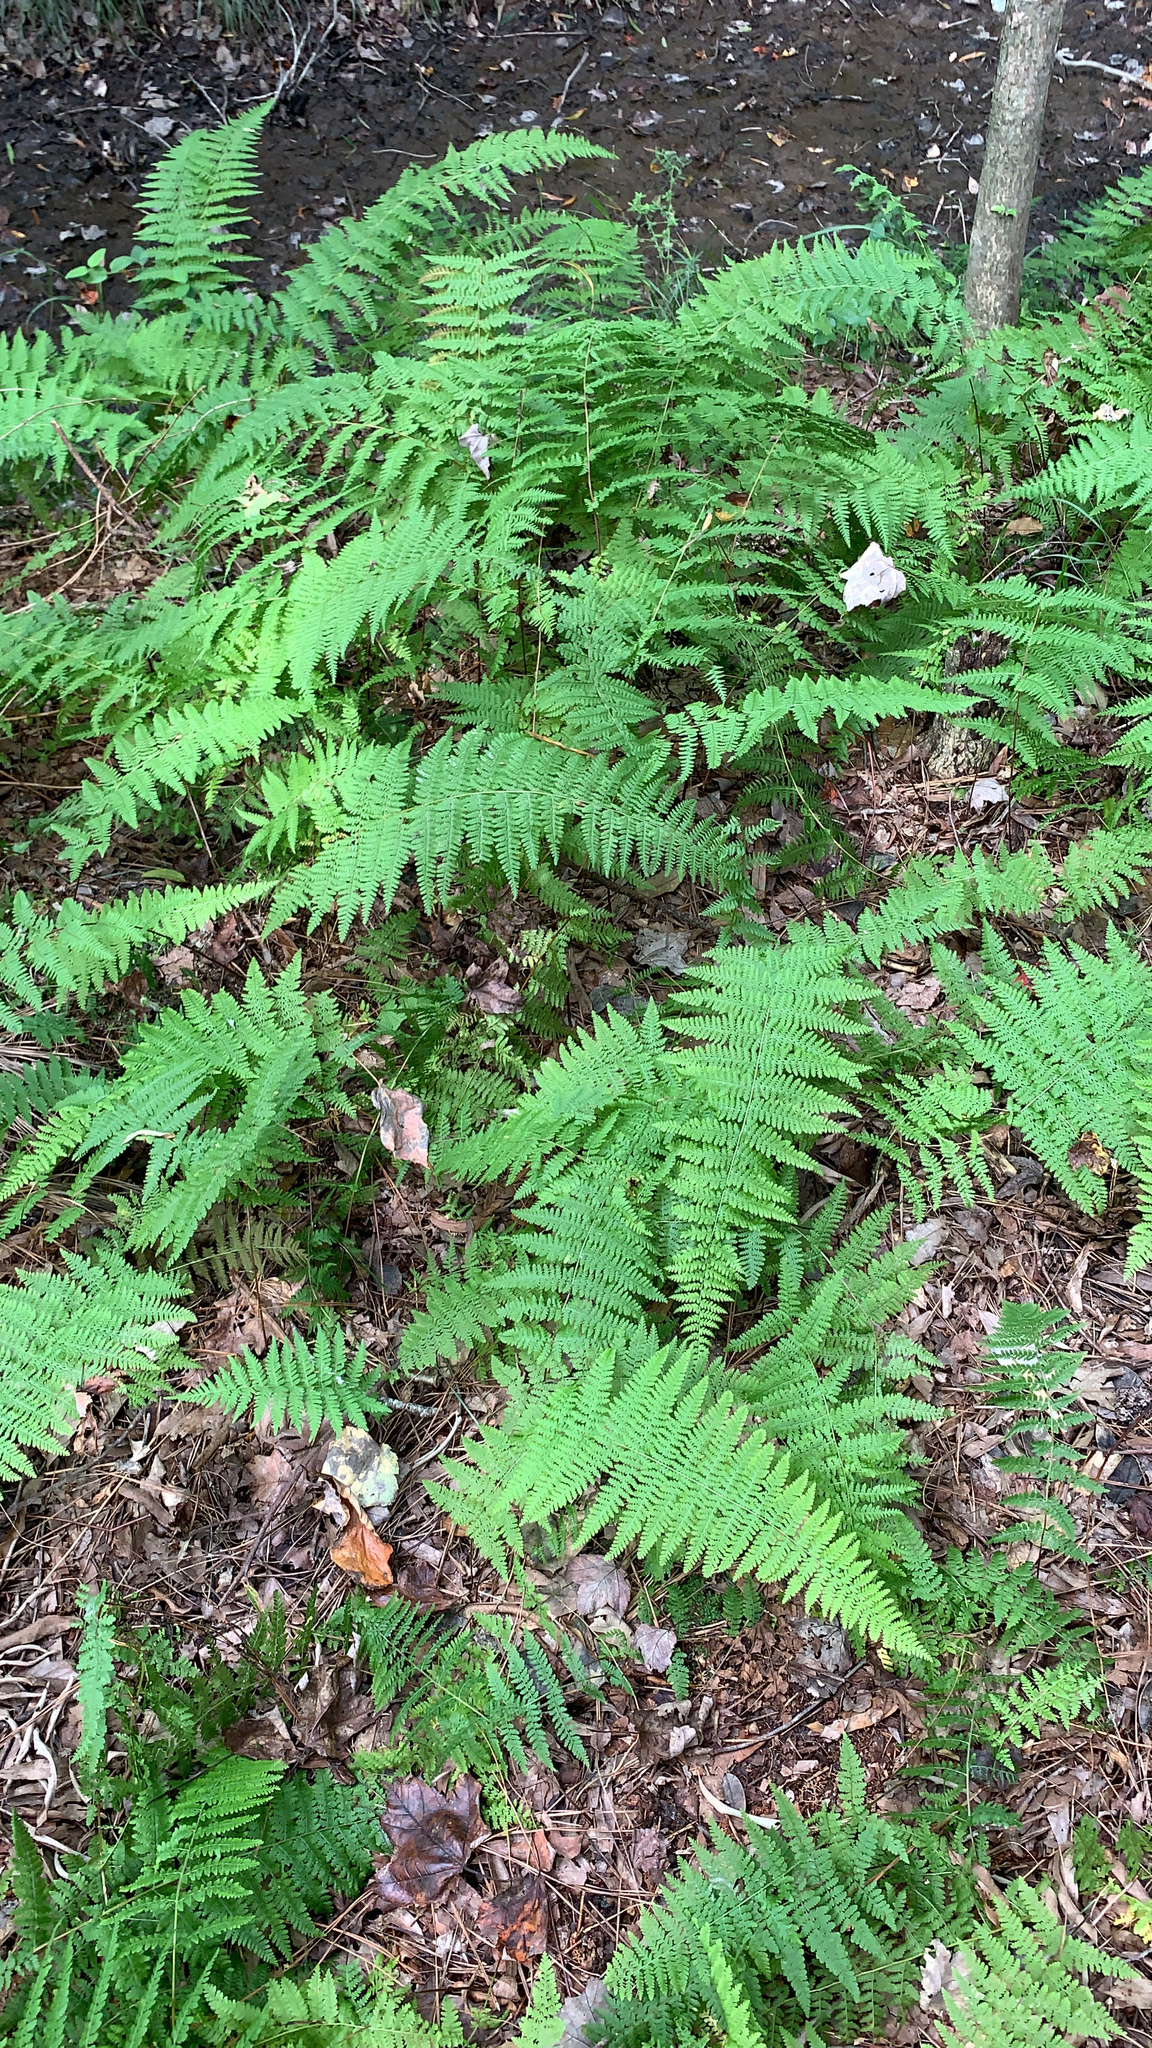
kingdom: Plantae
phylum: Tracheophyta
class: Polypodiopsida
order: Polypodiales
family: Dennstaedtiaceae
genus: Sitobolium
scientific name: Sitobolium punctilobum
